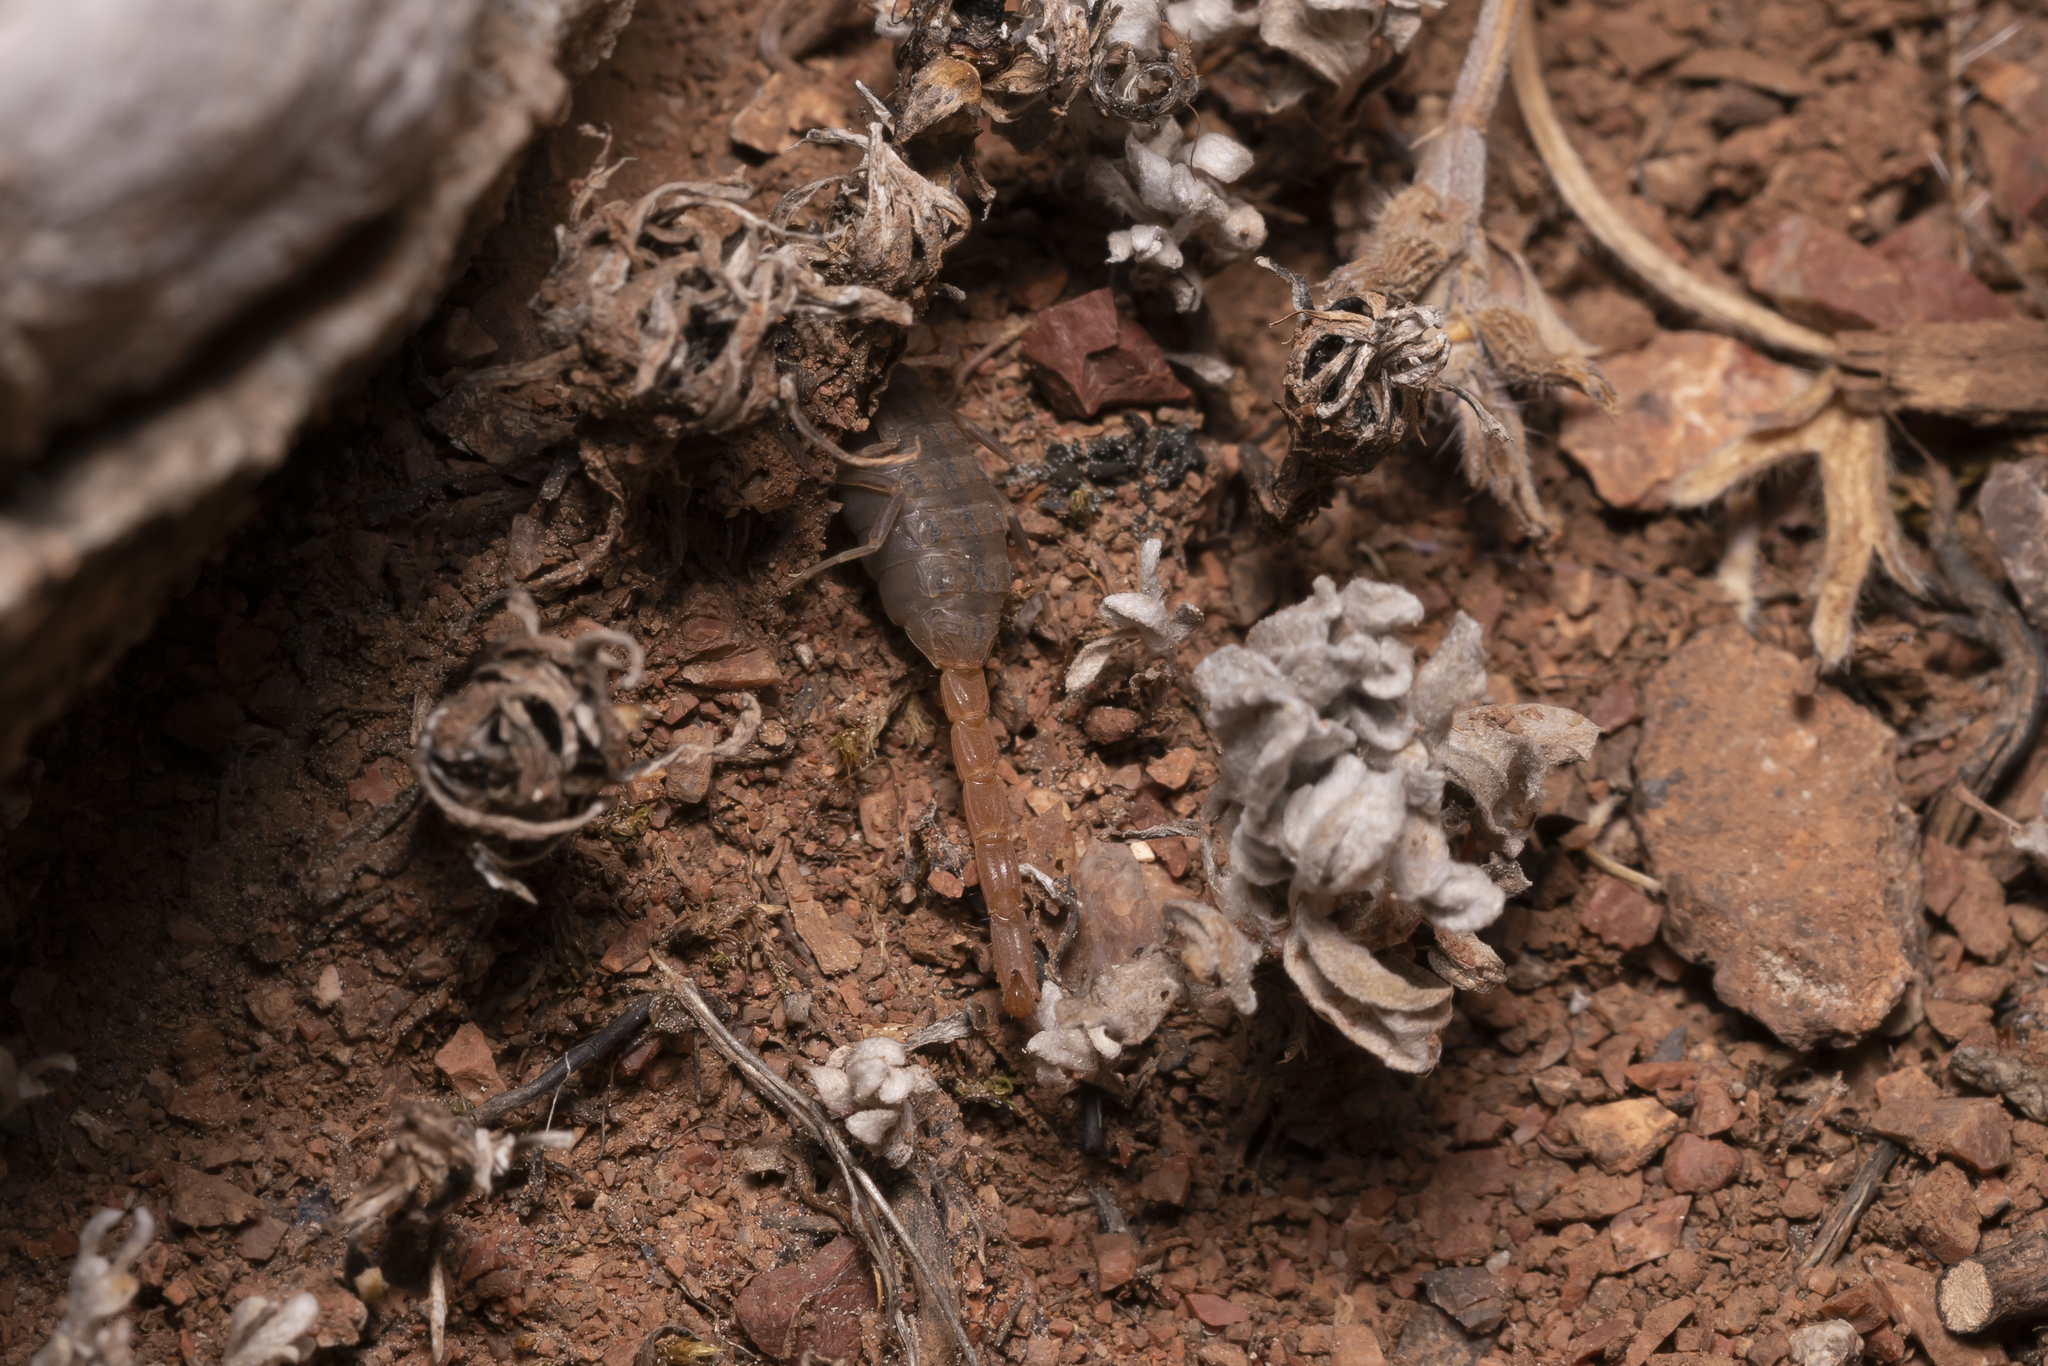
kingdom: Animalia
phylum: Arthropoda
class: Arachnida
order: Scorpiones
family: Buthidae
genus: Aegaeobuthus
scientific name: Aegaeobuthus gibbosus
